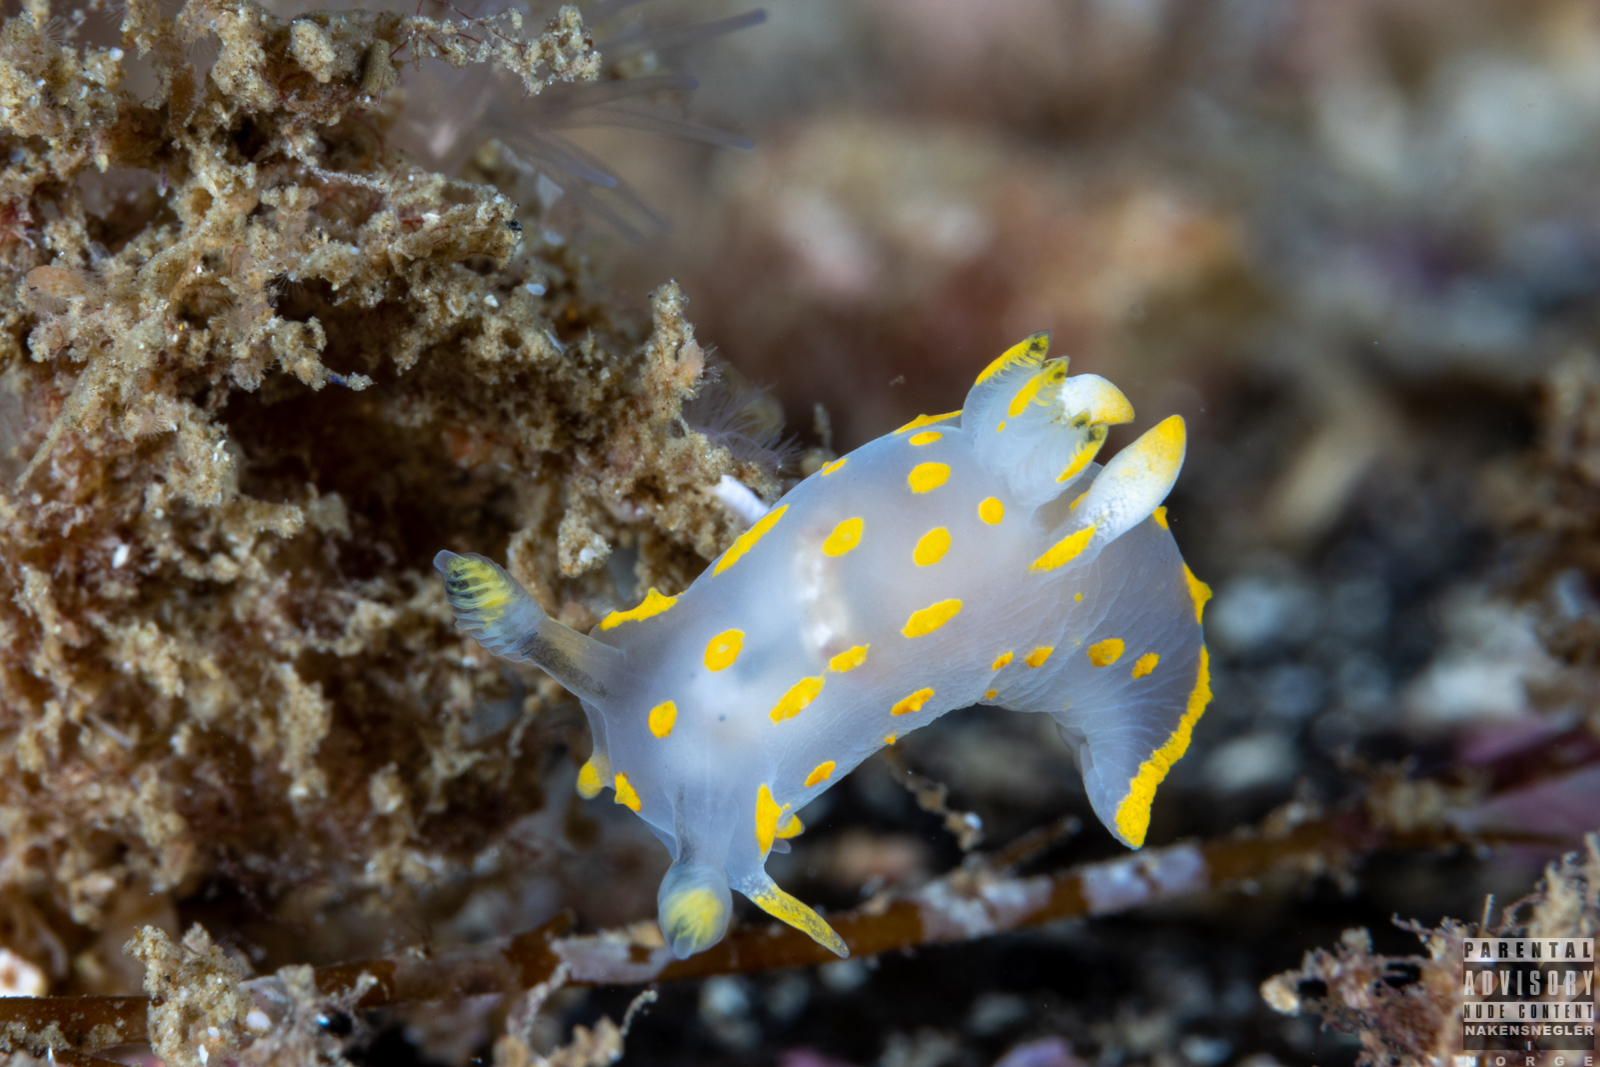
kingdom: Animalia
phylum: Mollusca
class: Gastropoda
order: Nudibranchia
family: Polyceridae
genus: Polycera
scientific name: Polycera quadrilineata
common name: Four-striped polycera
